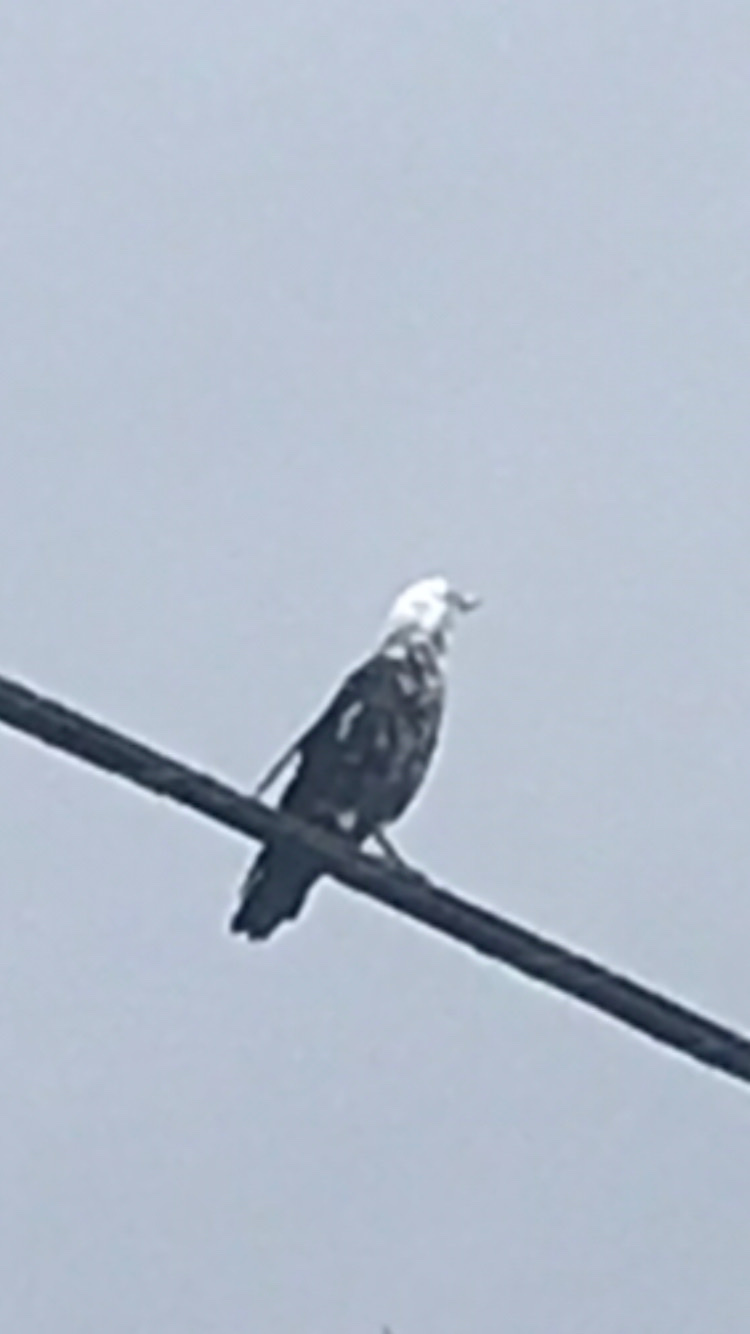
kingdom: Animalia
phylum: Chordata
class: Aves
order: Passeriformes
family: Corvidae
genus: Corvus
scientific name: Corvus brachyrhynchos
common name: American crow
